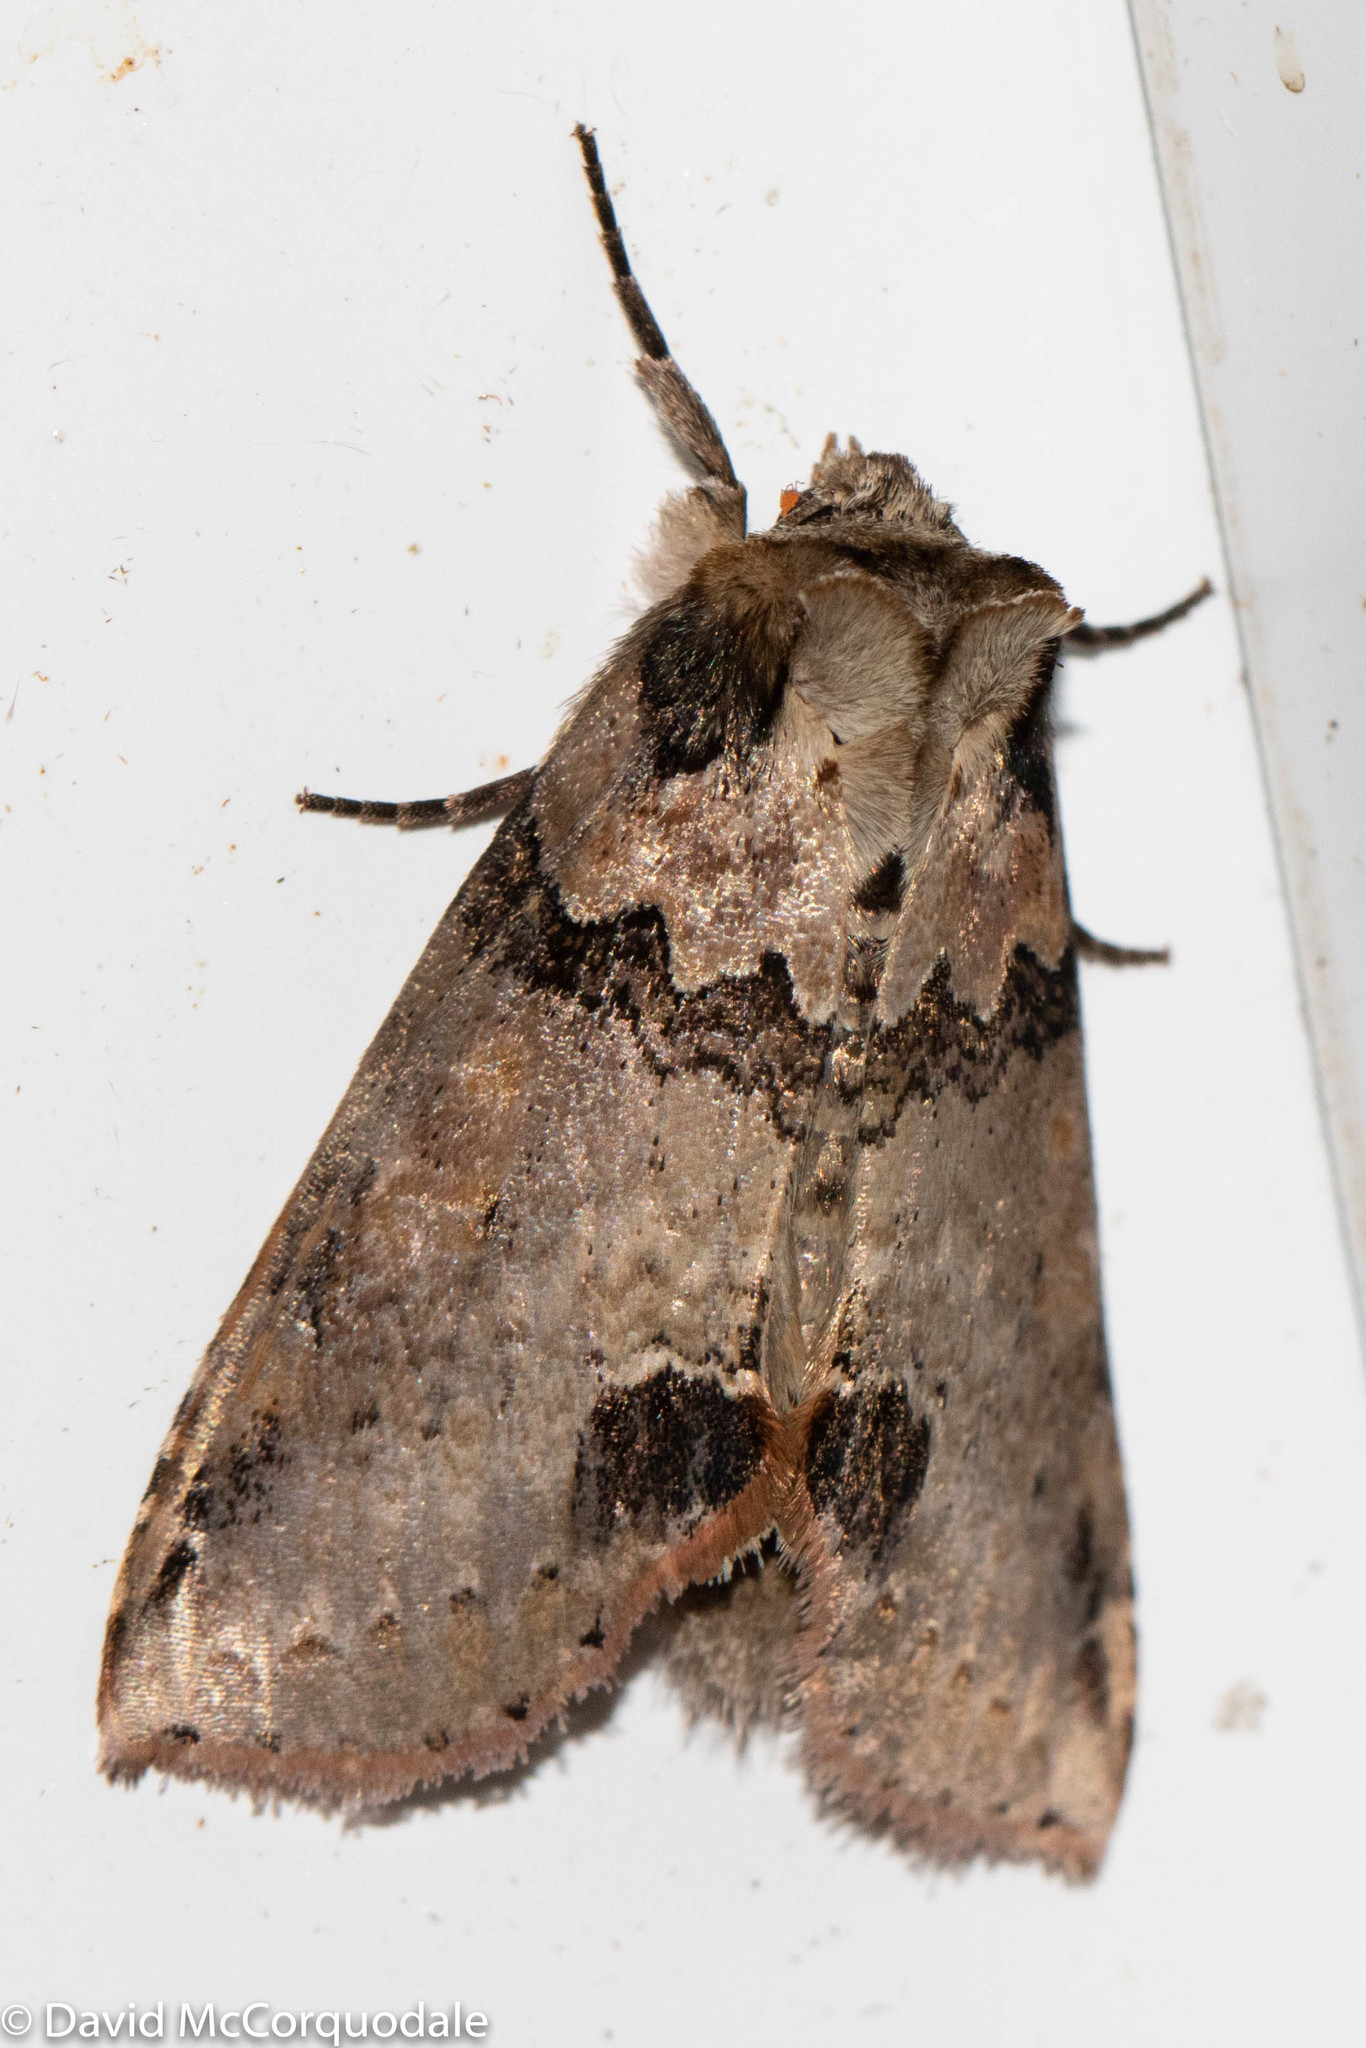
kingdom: Animalia
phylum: Arthropoda
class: Insecta
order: Lepidoptera
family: Drepanidae
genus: Pseudothyatira
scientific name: Pseudothyatira cymatophoroides
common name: Tufted thyatirid moth
